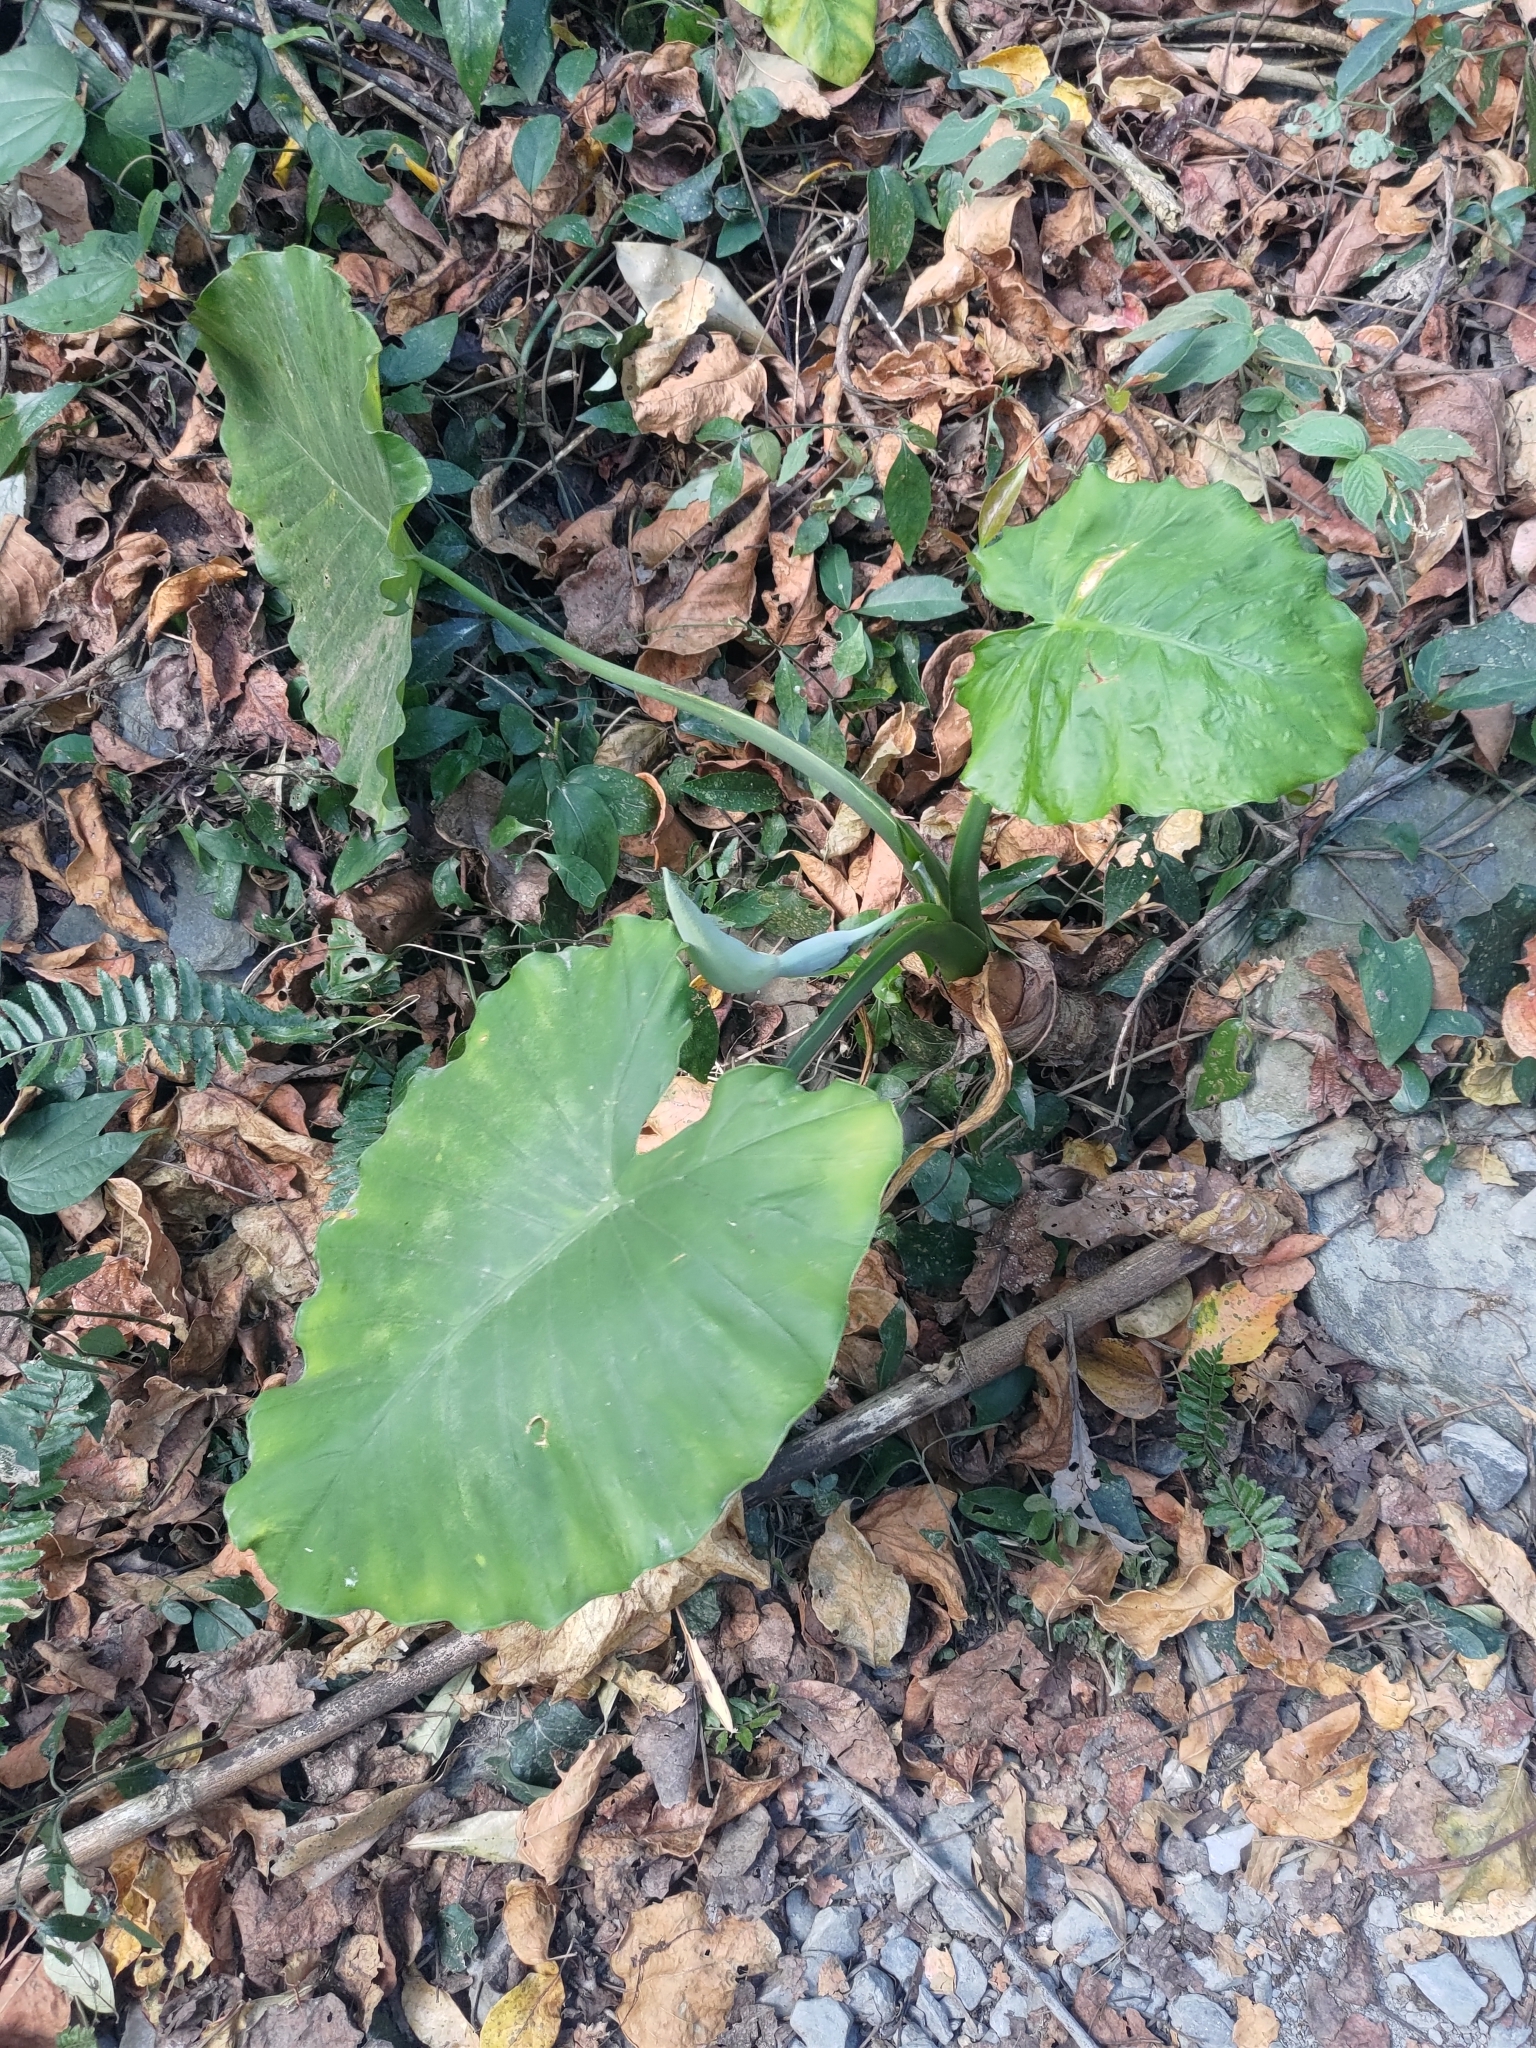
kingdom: Plantae
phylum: Tracheophyta
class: Liliopsida
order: Alismatales
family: Araceae
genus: Alocasia
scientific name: Alocasia odora
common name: Asian taro
